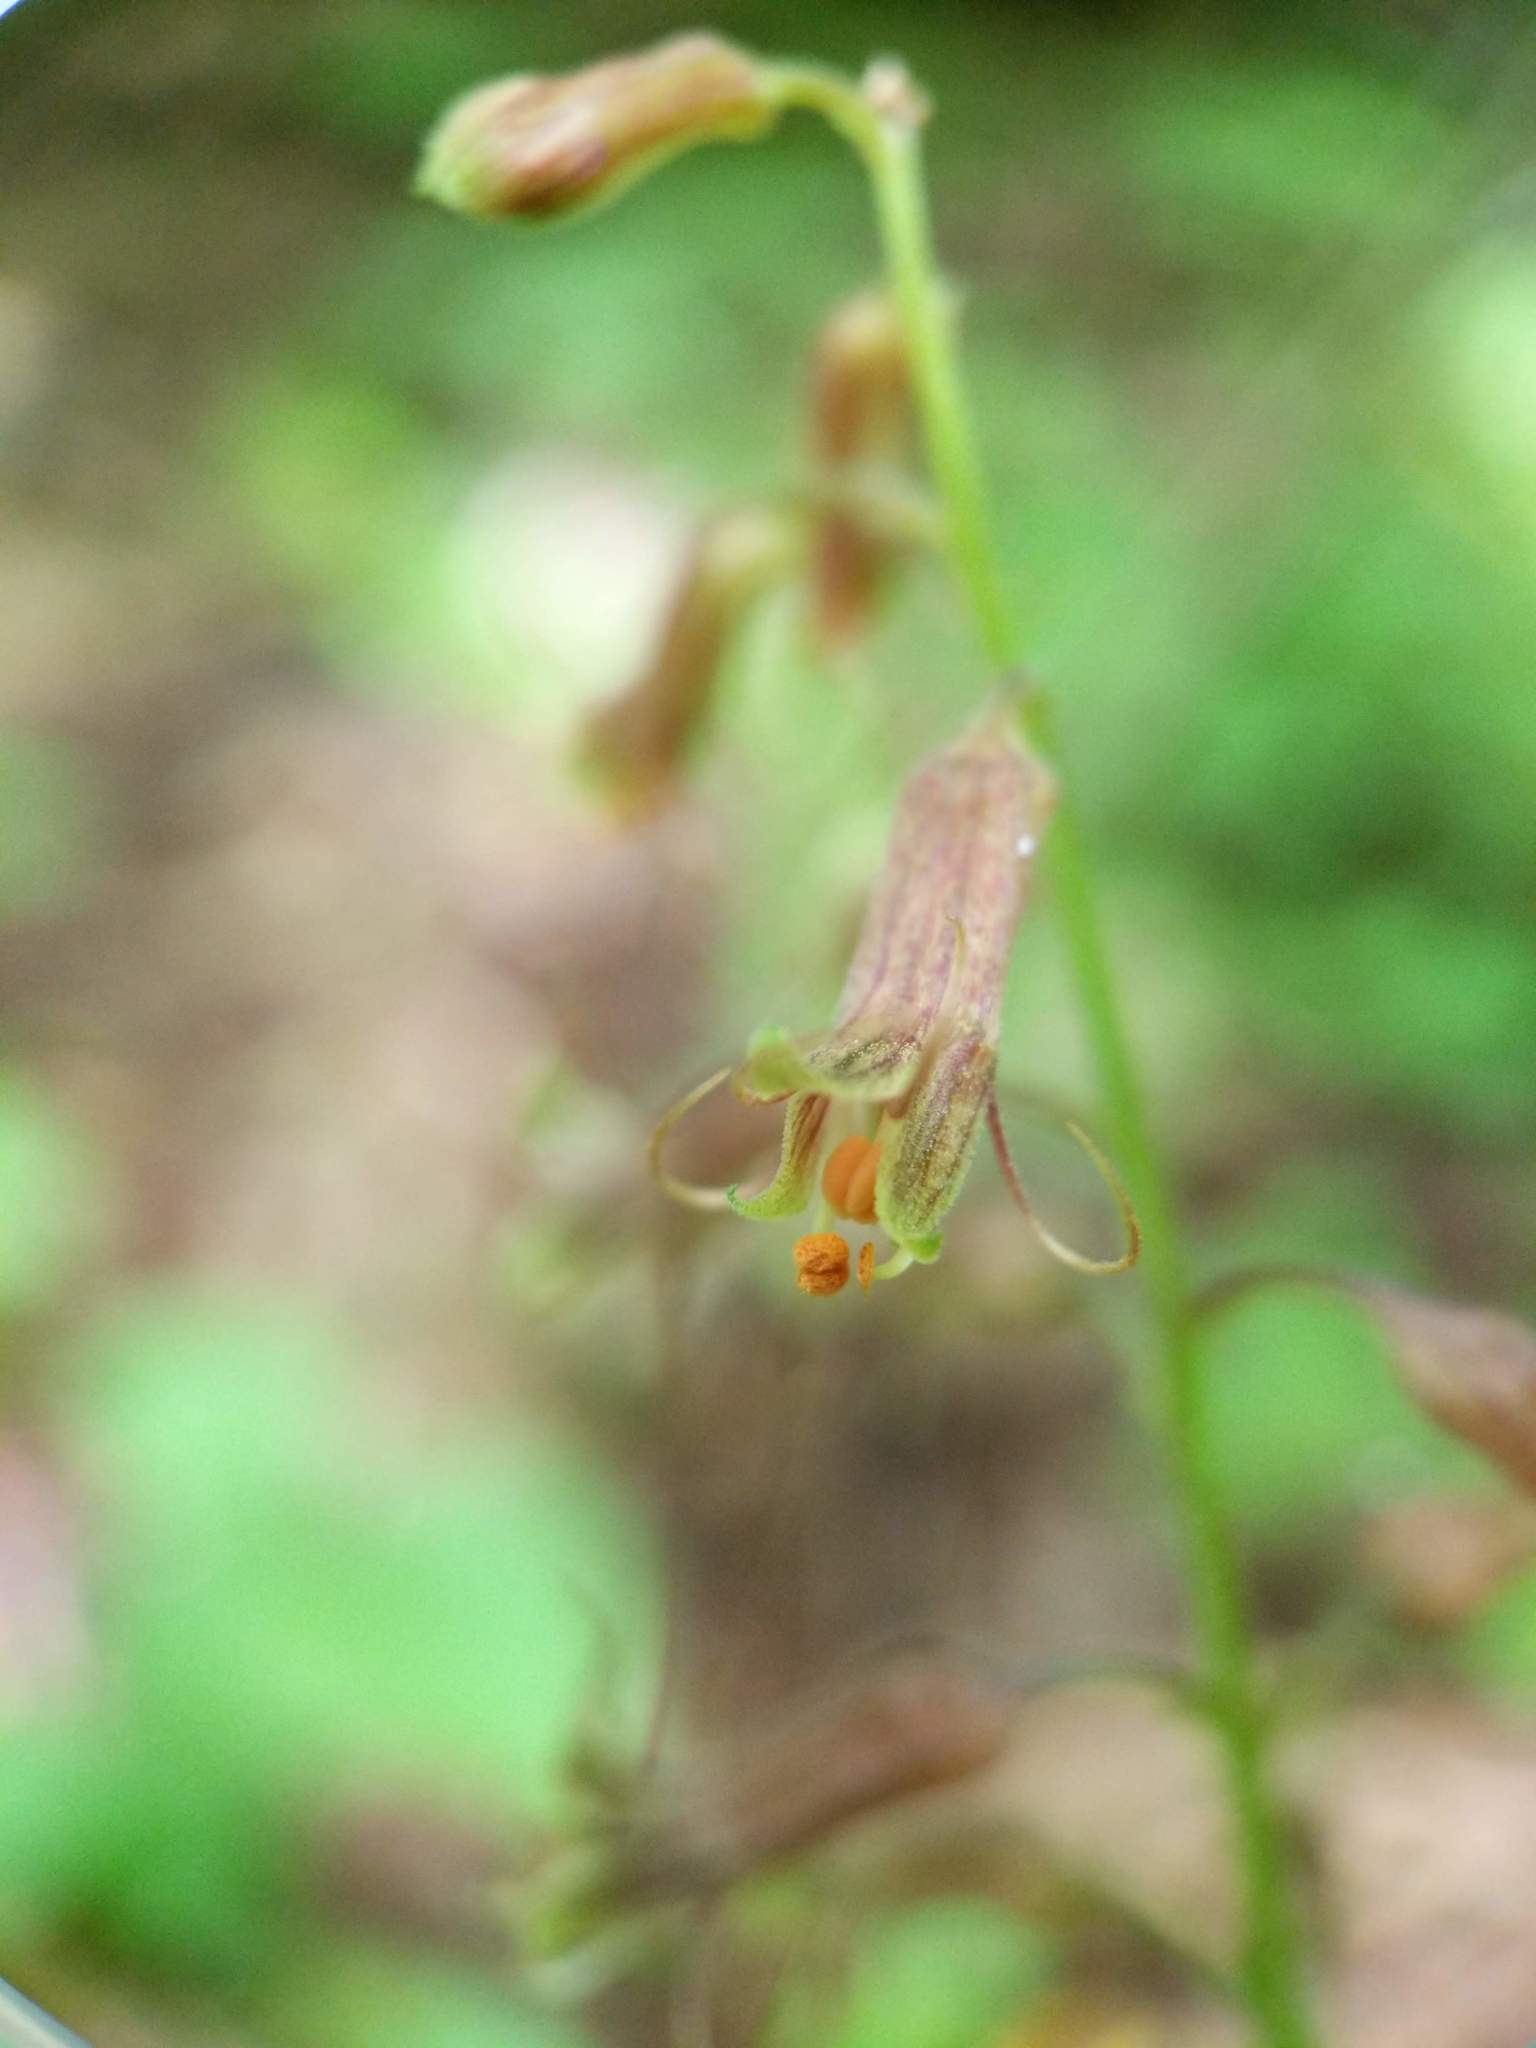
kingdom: Plantae
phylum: Tracheophyta
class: Magnoliopsida
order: Saxifragales
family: Saxifragaceae
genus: Tolmiea
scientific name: Tolmiea menziesii
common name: Pick-a-back-plant
